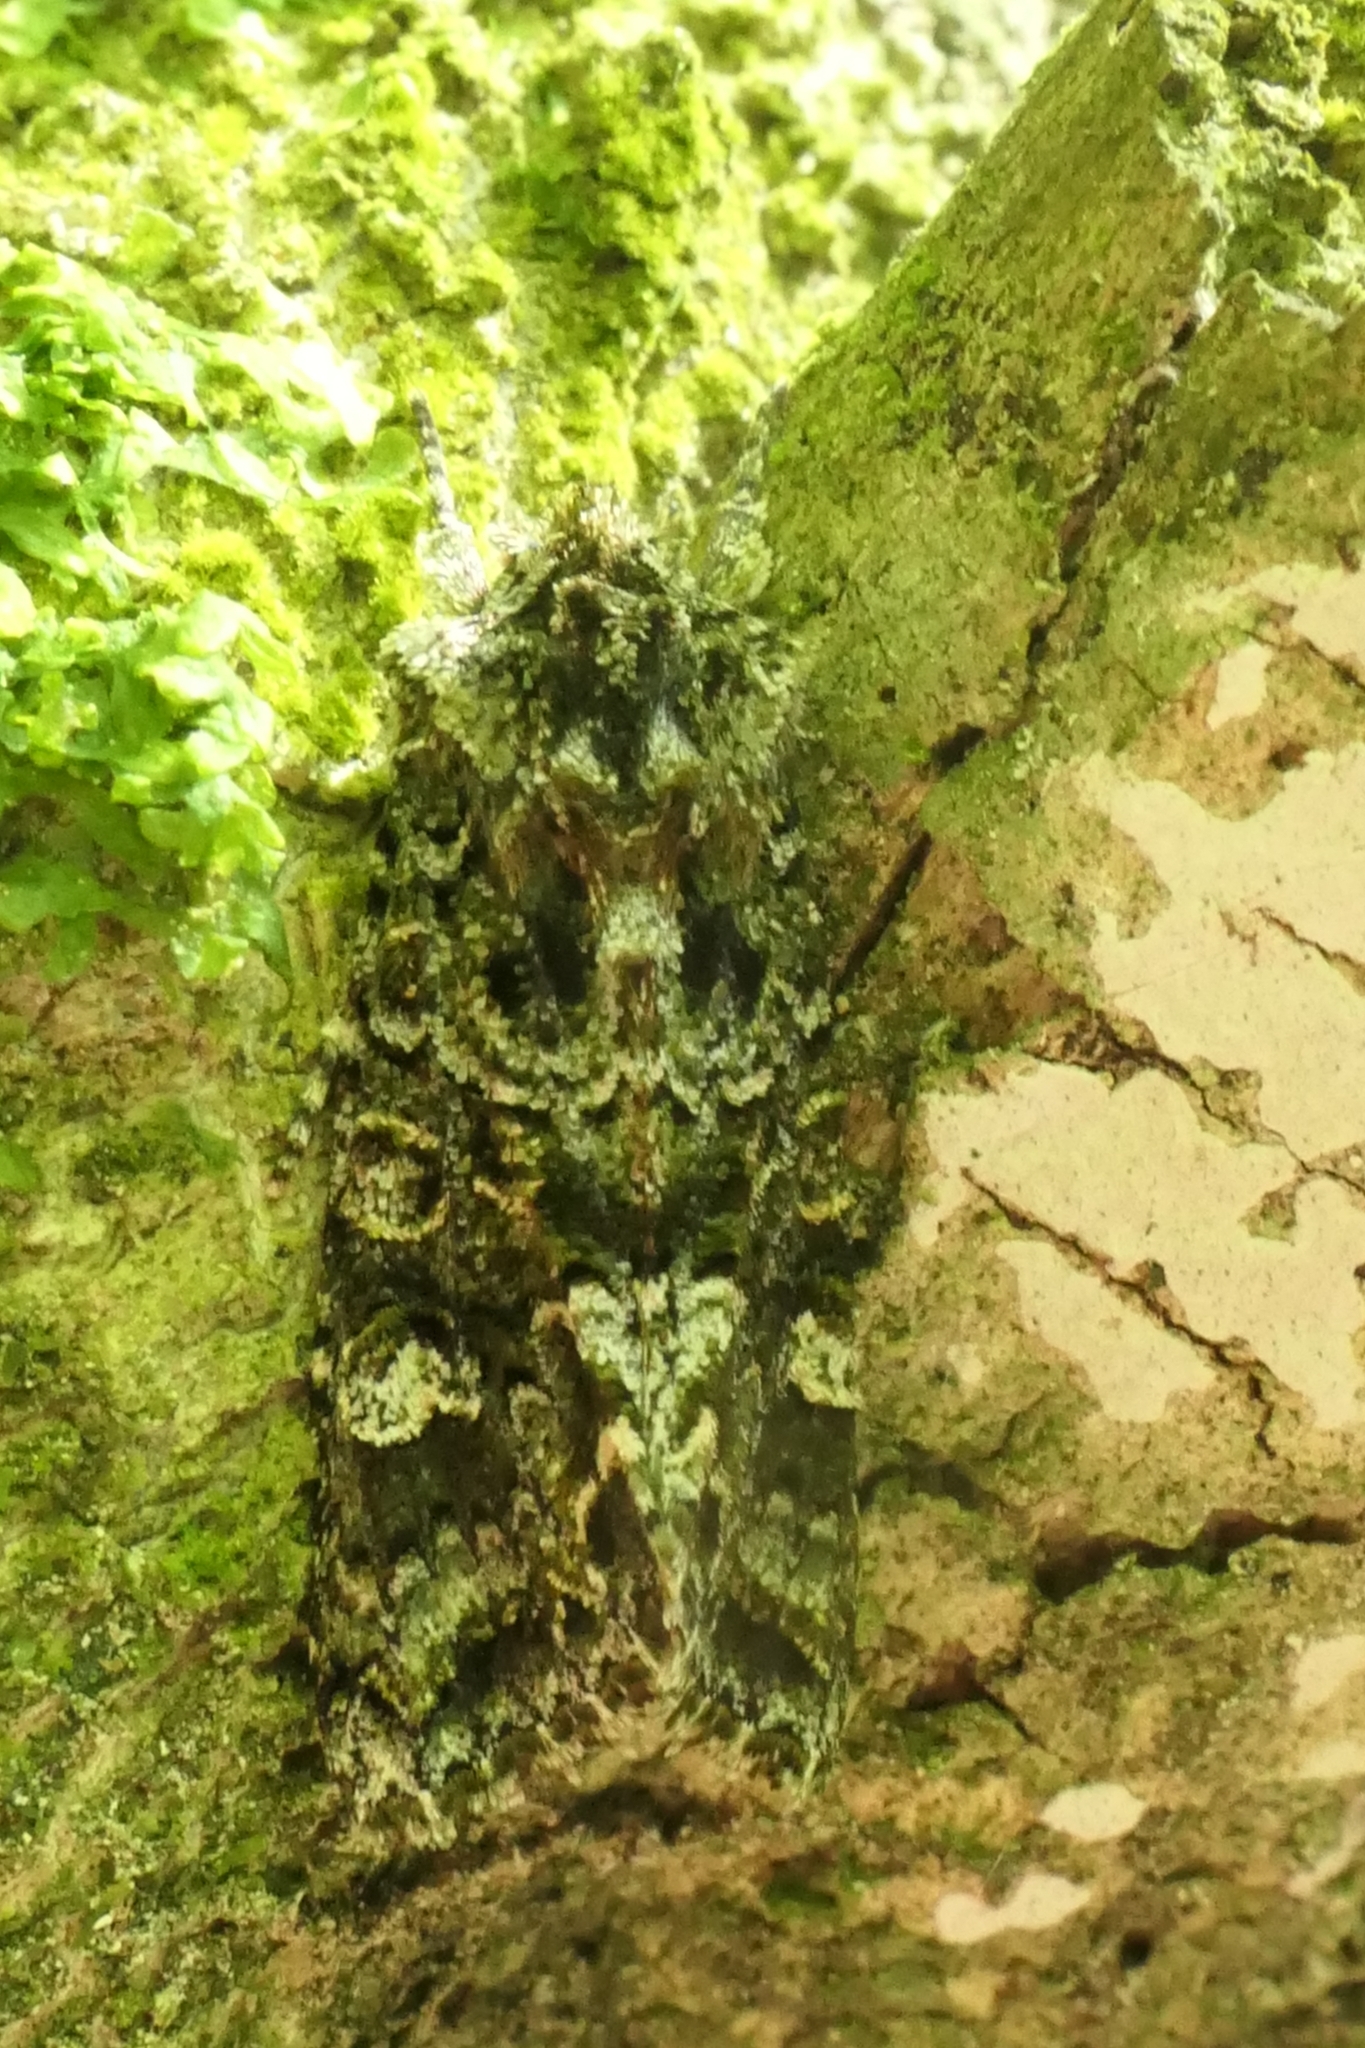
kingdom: Animalia
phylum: Arthropoda
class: Insecta
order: Lepidoptera
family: Noctuidae
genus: Ichneutica
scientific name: Ichneutica
